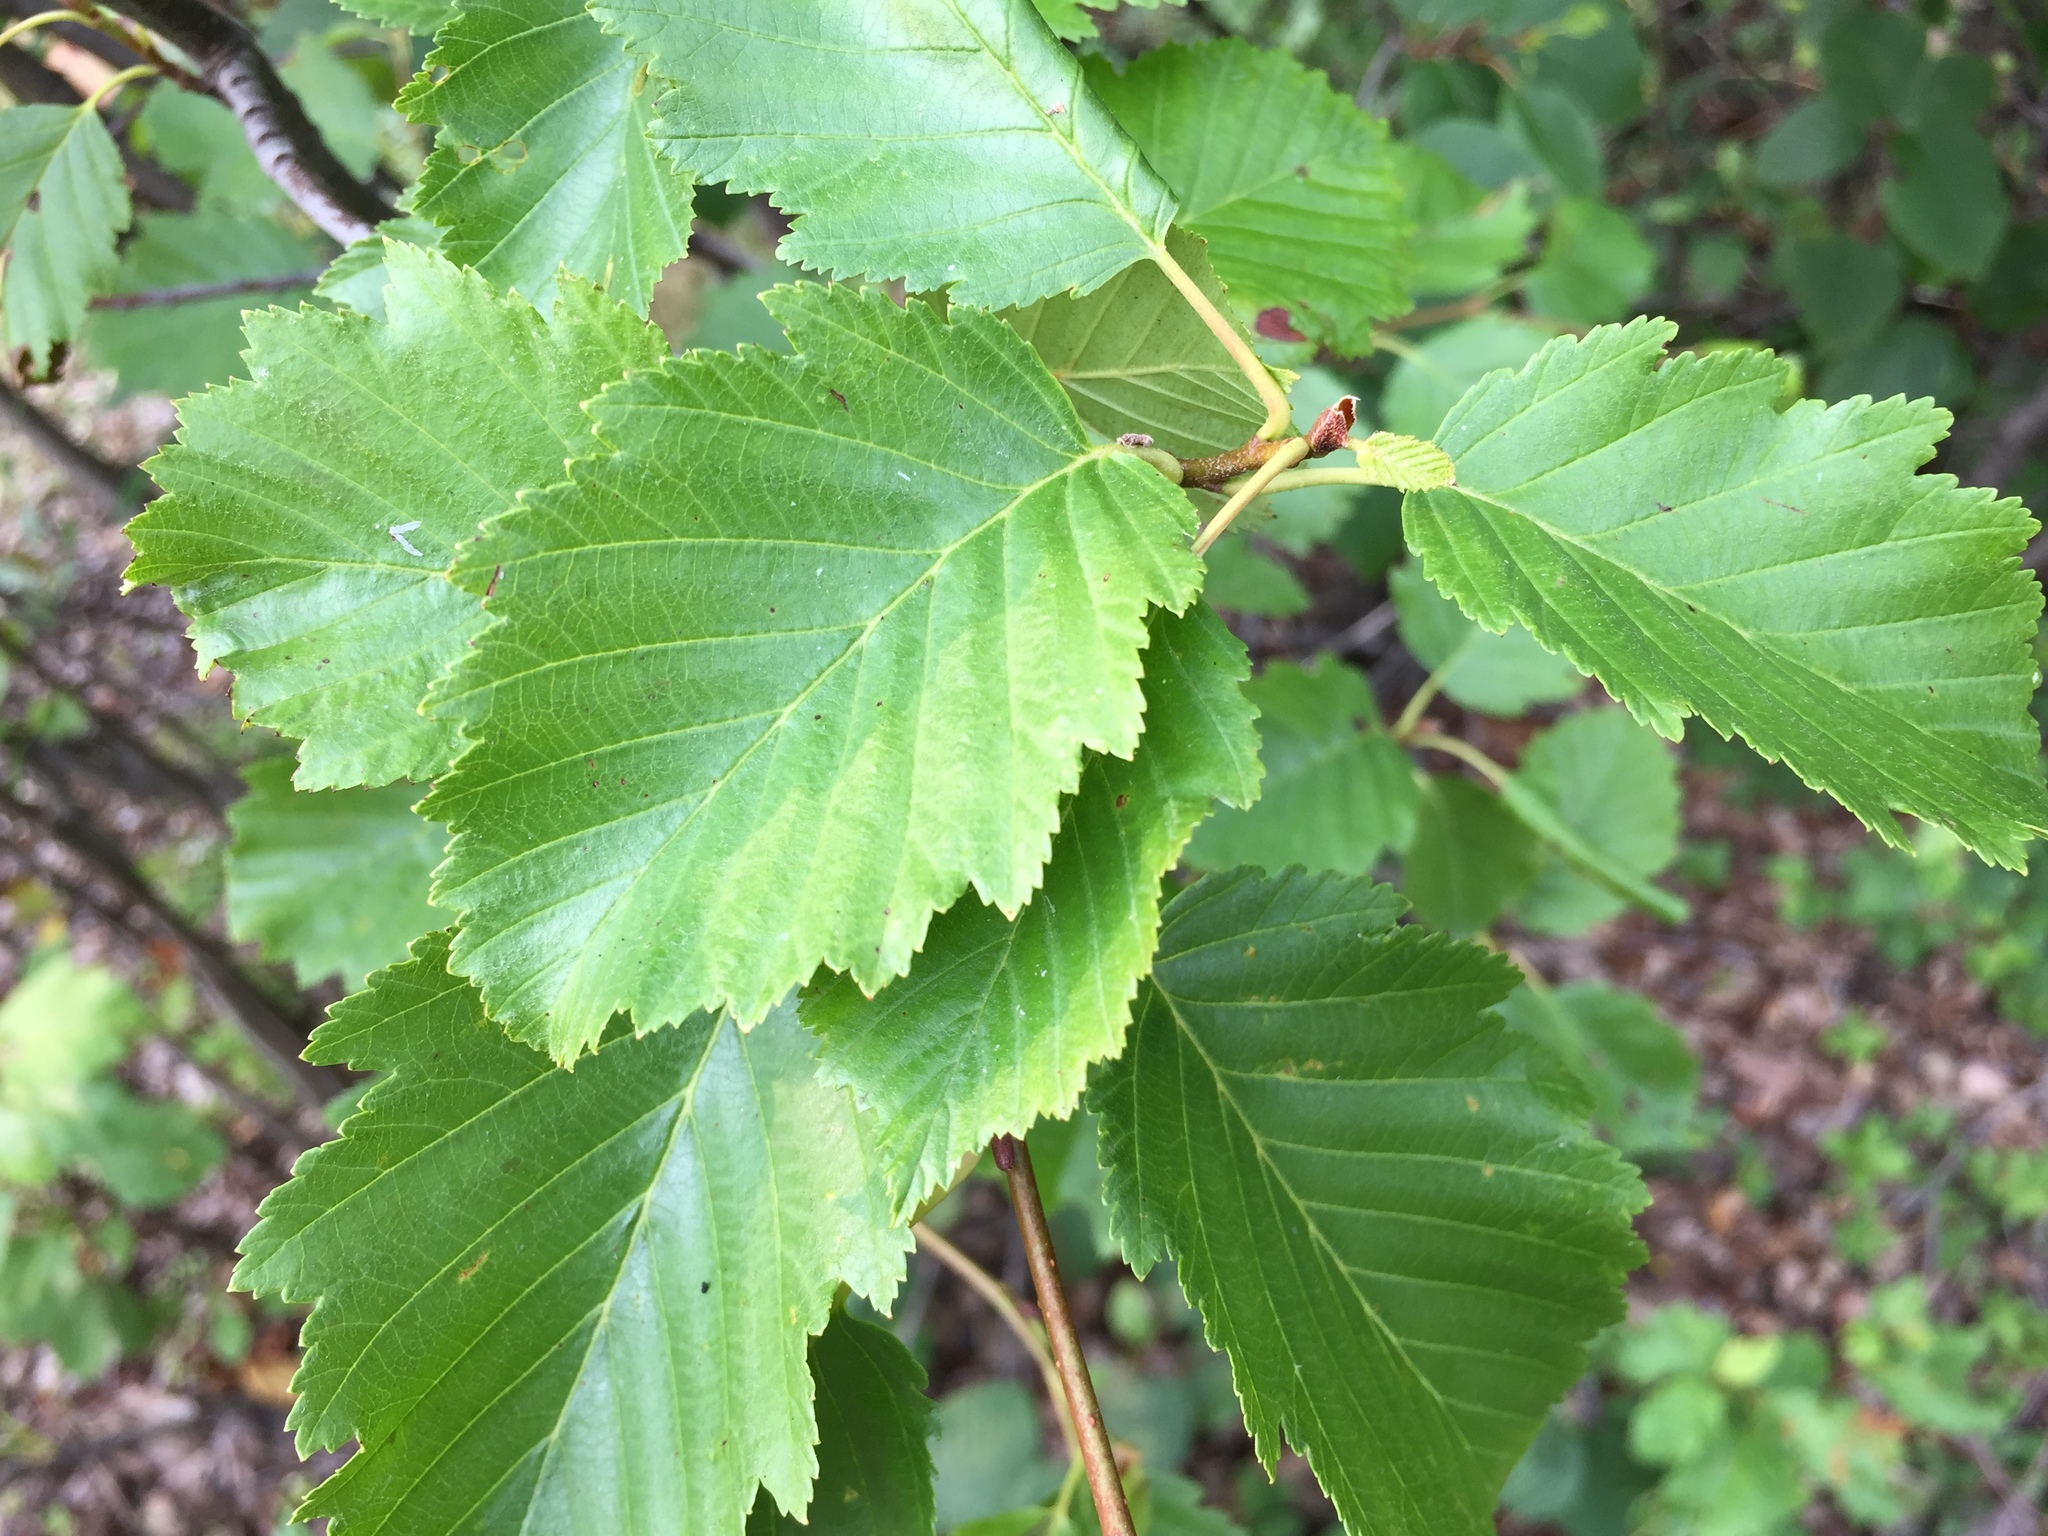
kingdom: Plantae
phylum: Tracheophyta
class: Magnoliopsida
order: Fagales
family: Betulaceae
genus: Alnus
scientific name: Alnus incana
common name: Grey alder
